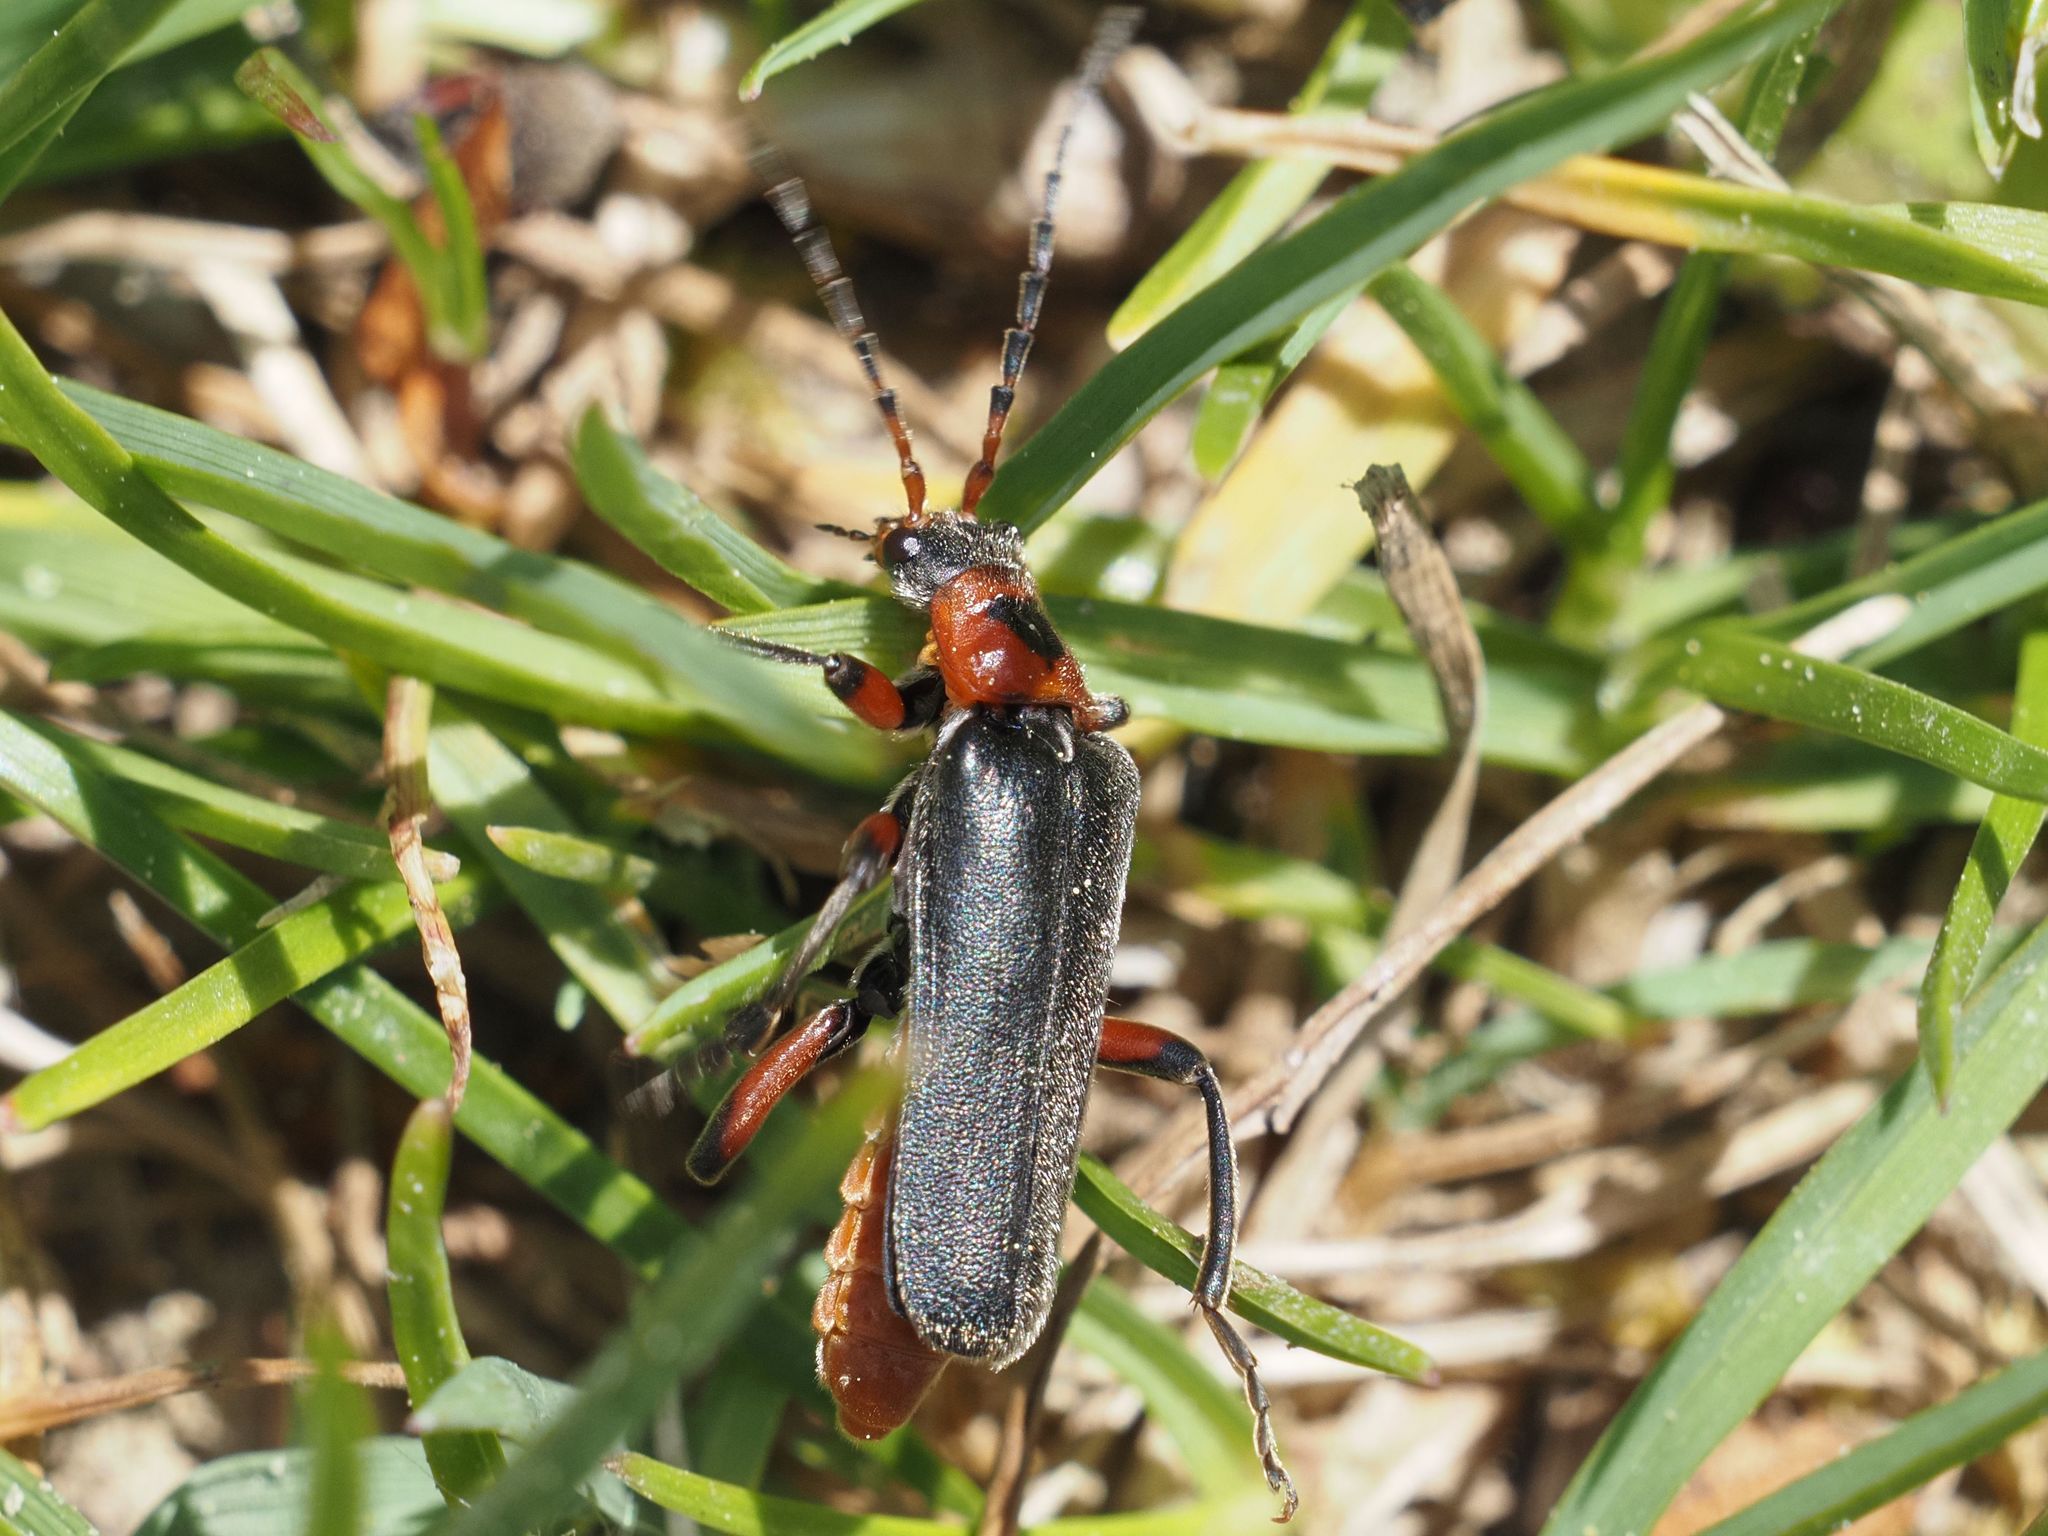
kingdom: Animalia
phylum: Arthropoda
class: Insecta
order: Coleoptera
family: Cantharidae
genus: Cantharis
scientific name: Cantharis rustica
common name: Soldier beetle
